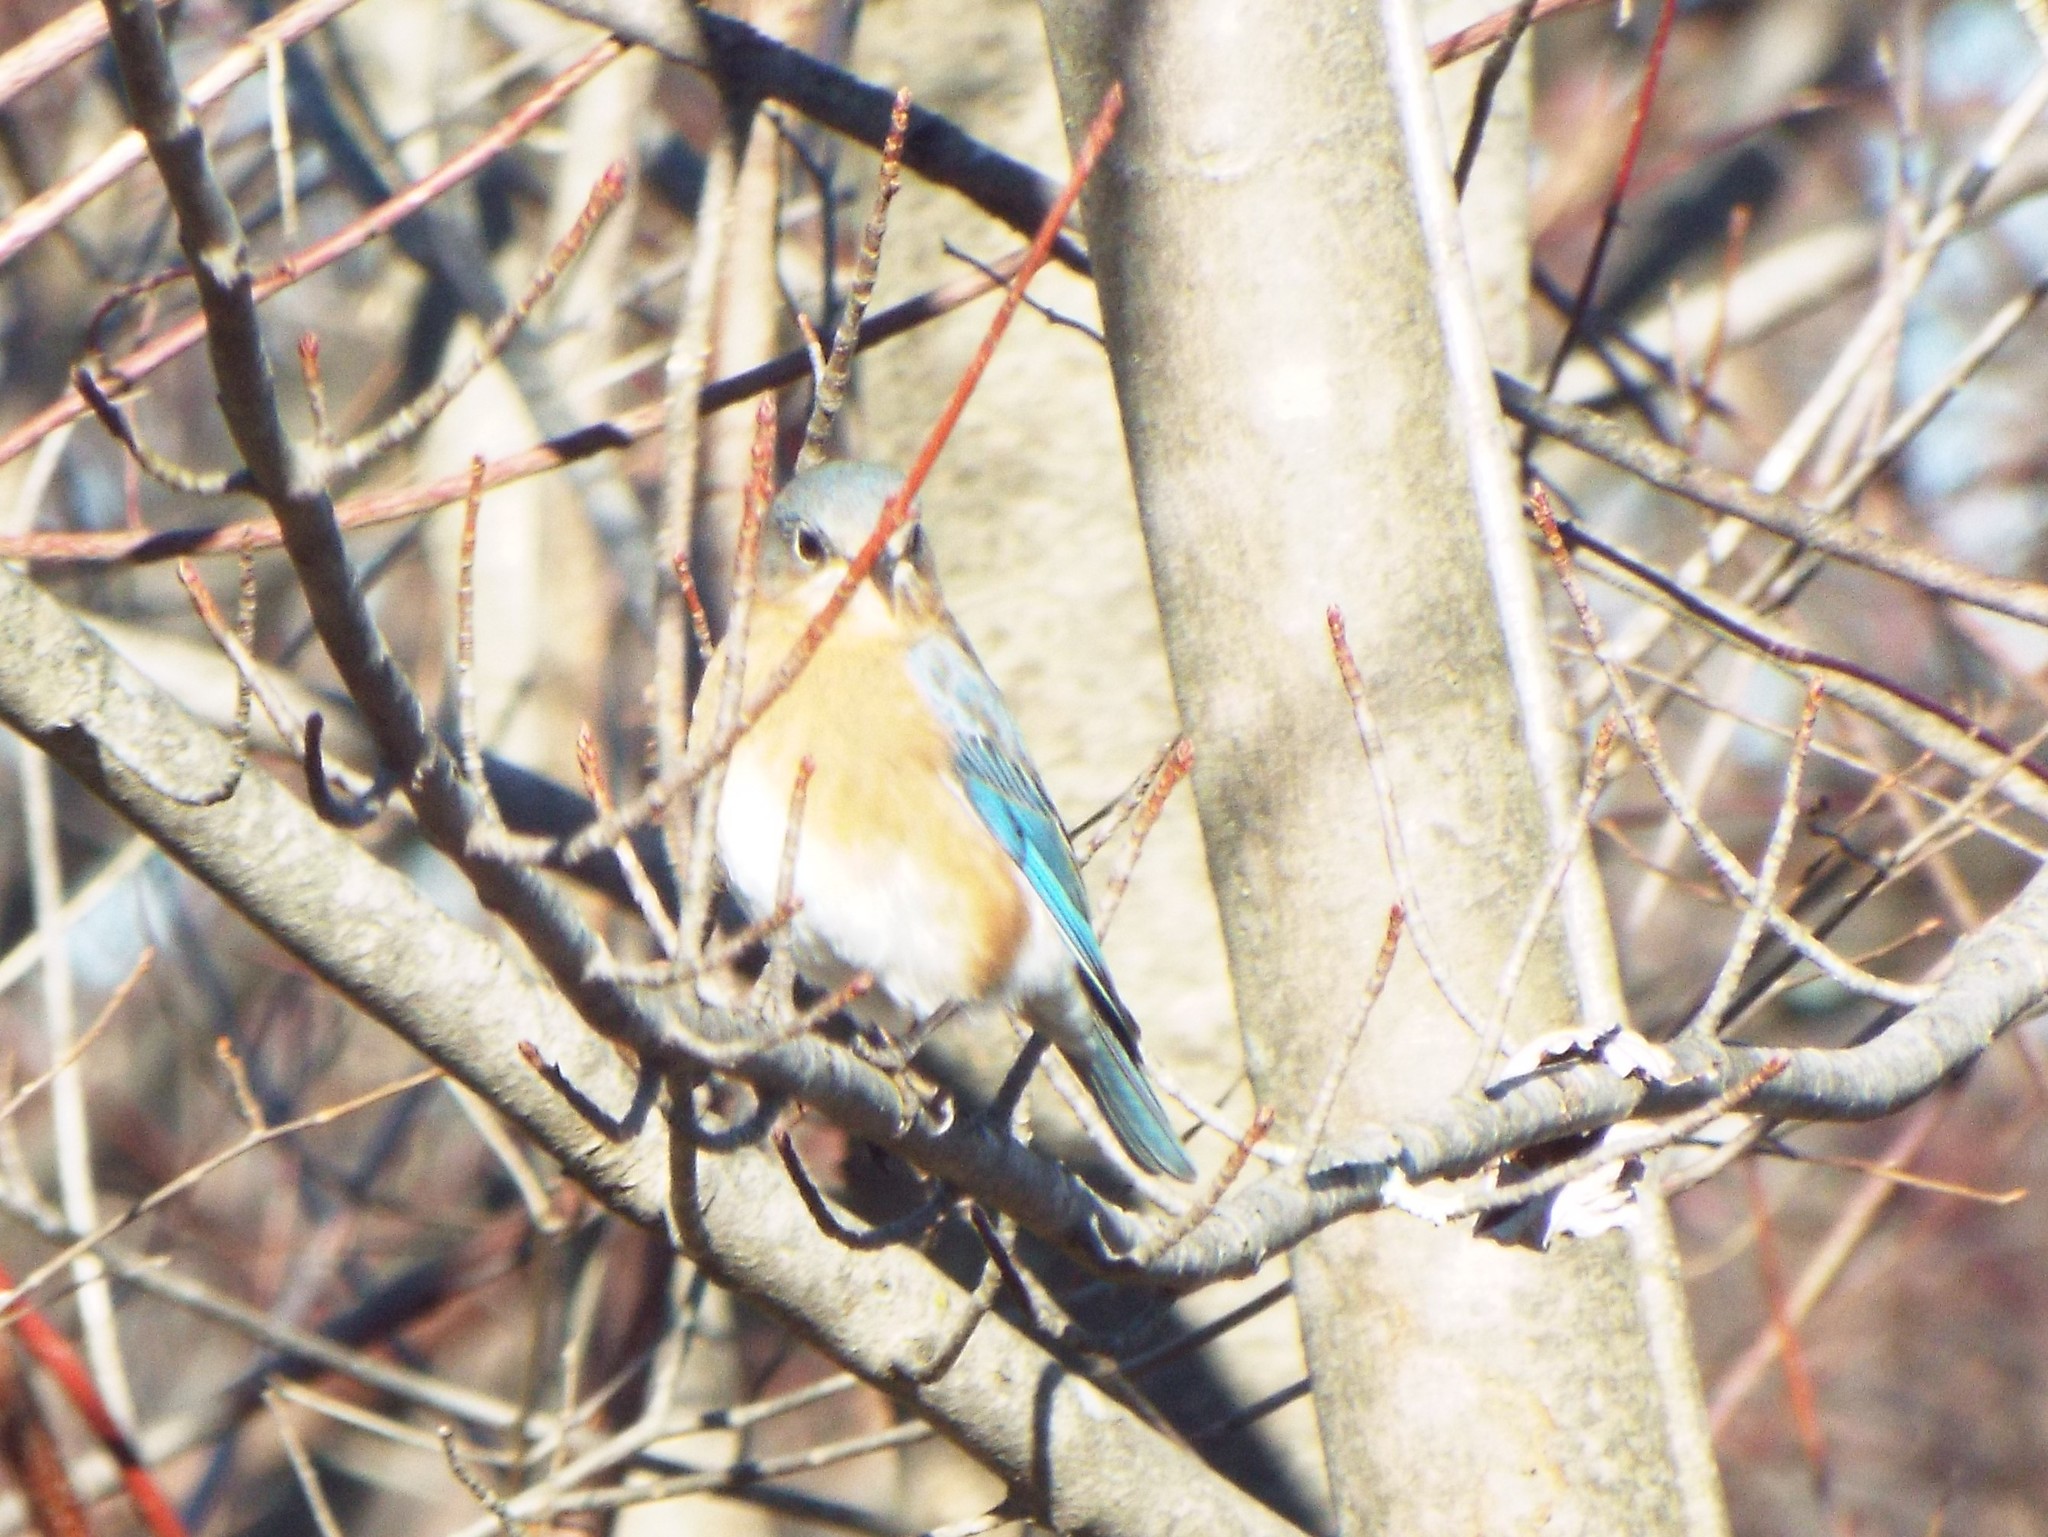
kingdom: Animalia
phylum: Chordata
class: Aves
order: Passeriformes
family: Turdidae
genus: Sialia
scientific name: Sialia sialis
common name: Eastern bluebird
